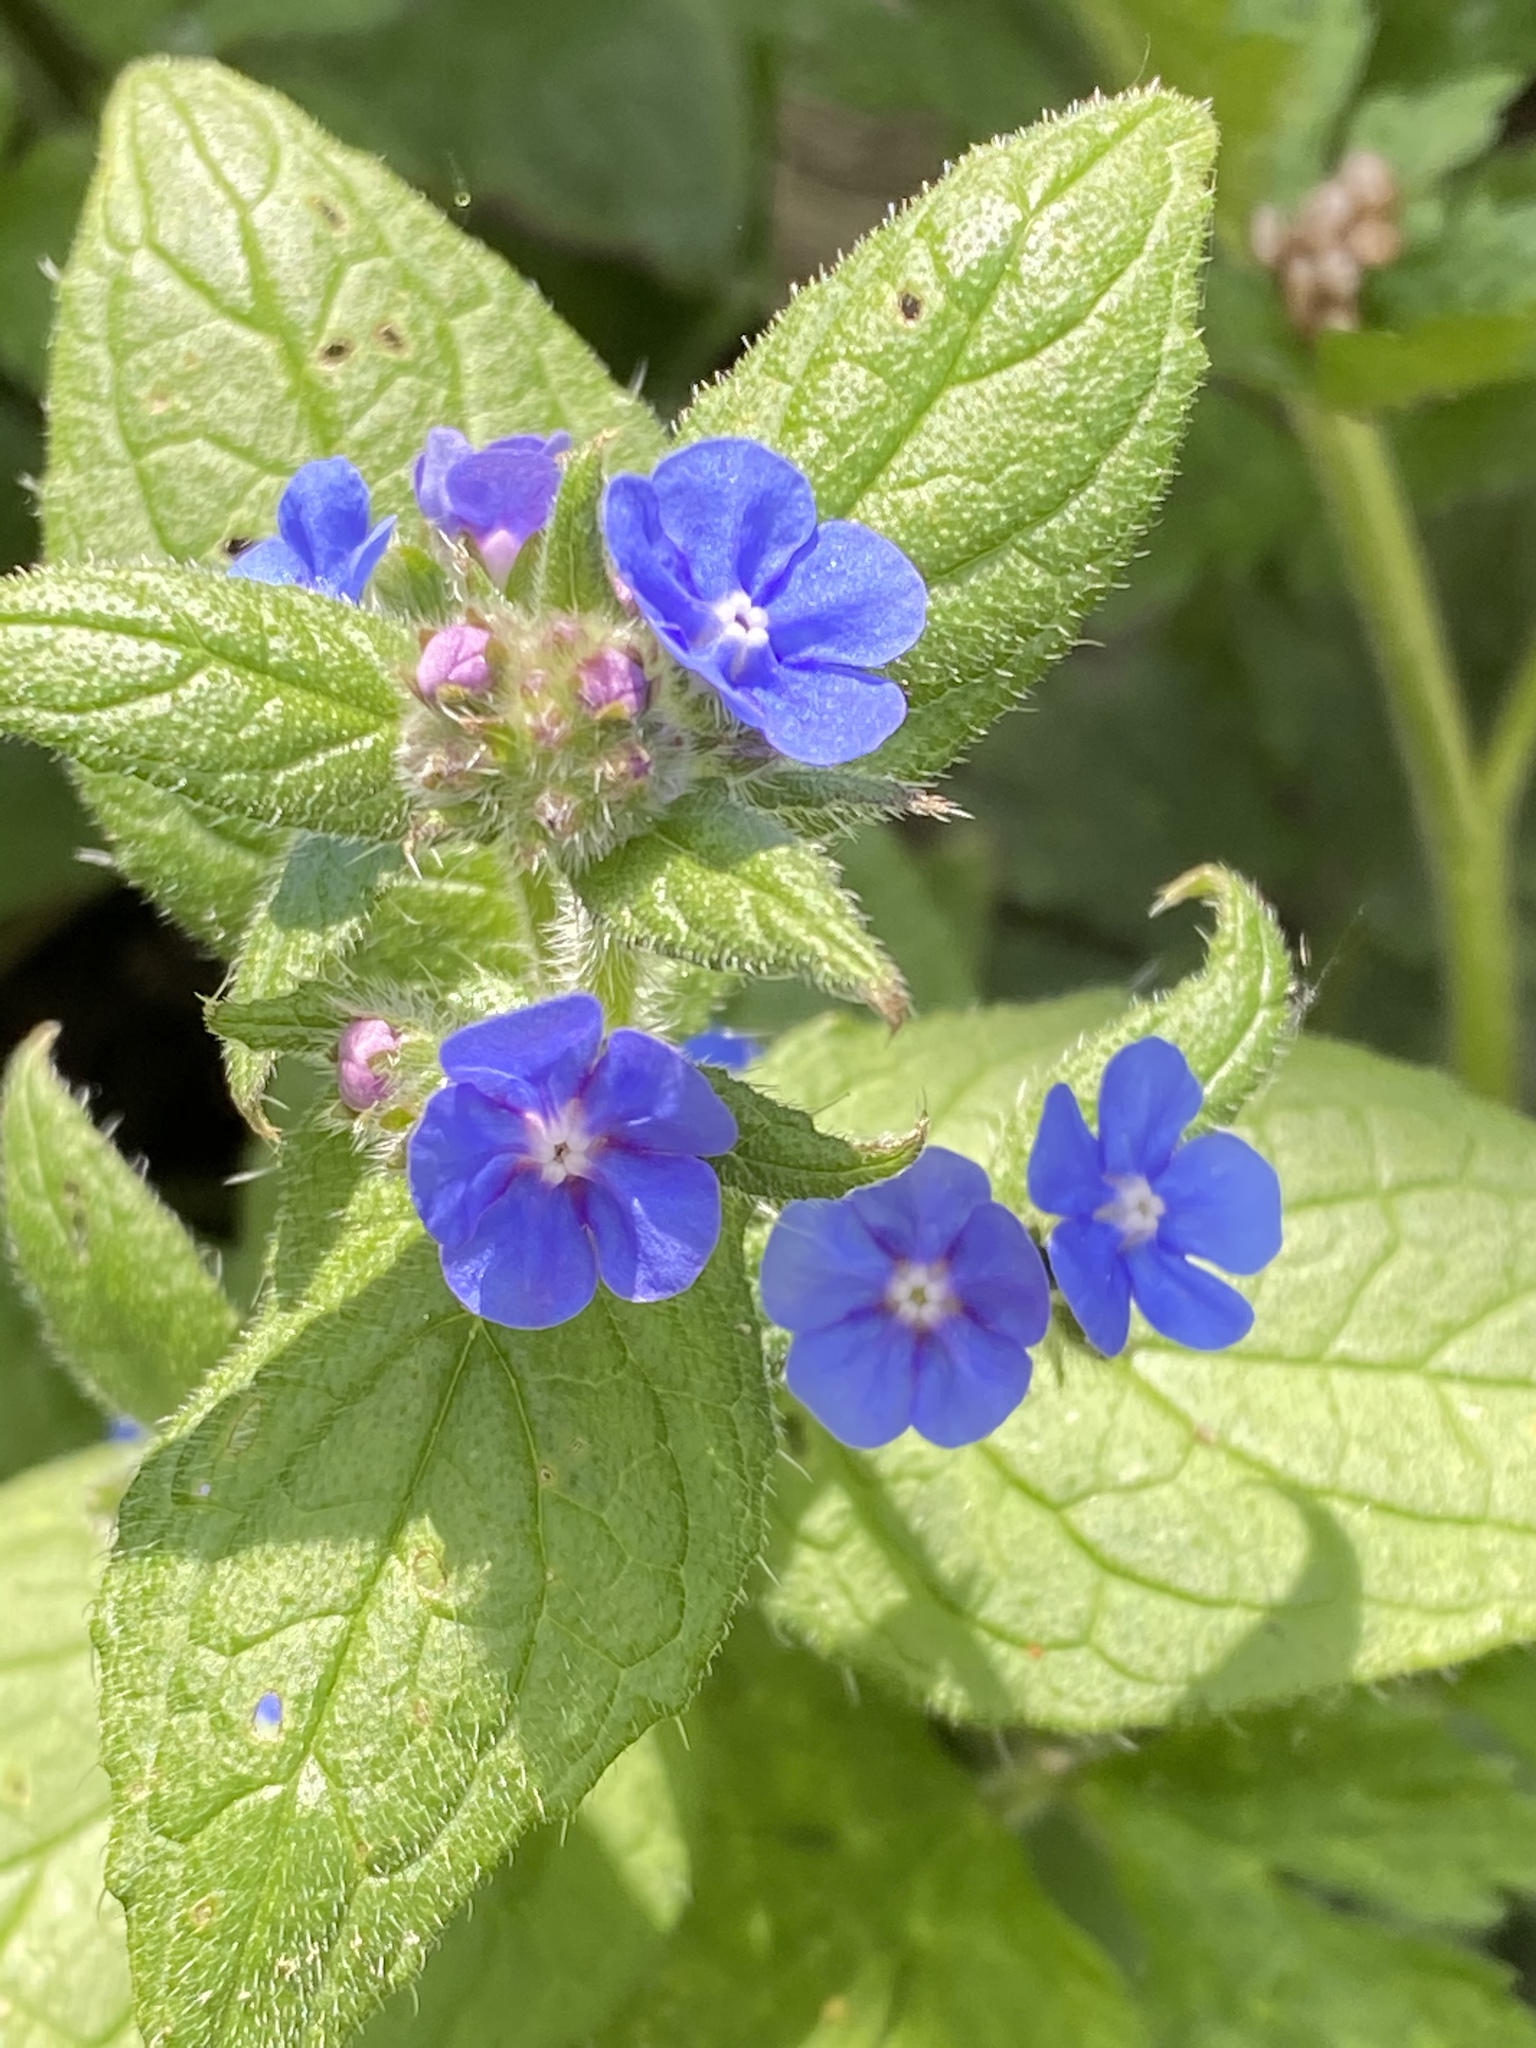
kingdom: Plantae
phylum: Tracheophyta
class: Magnoliopsida
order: Boraginales
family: Boraginaceae
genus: Pentaglottis
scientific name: Pentaglottis sempervirens
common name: Green alkanet
